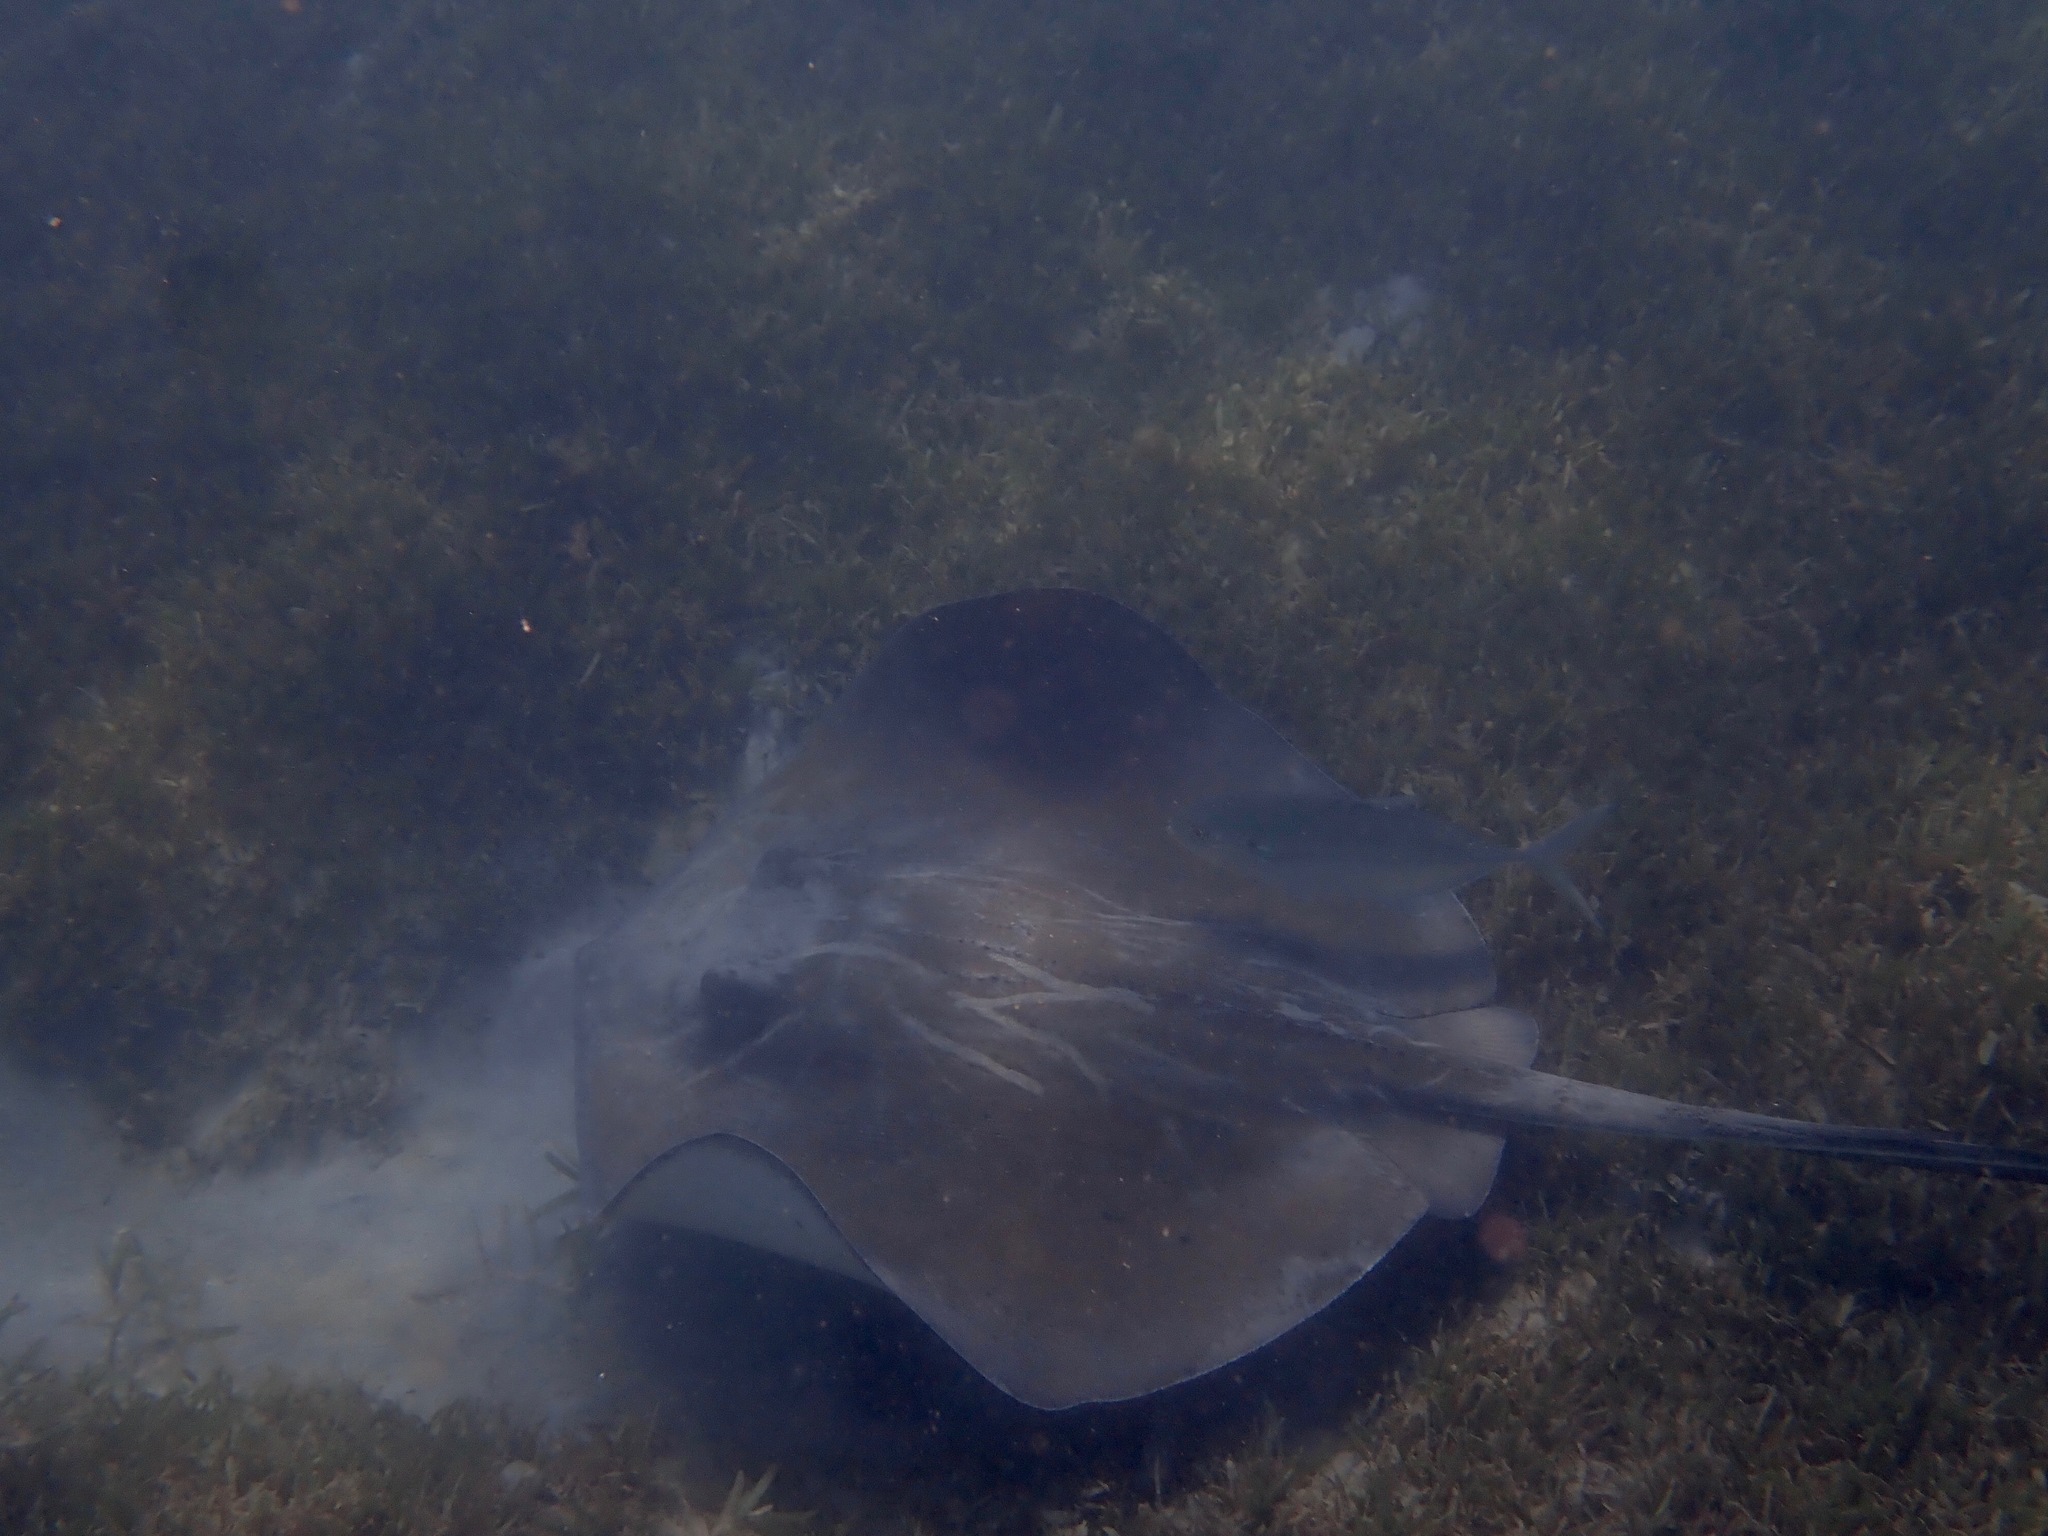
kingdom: Animalia
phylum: Chordata
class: Elasmobranchii
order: Myliobatiformes
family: Dasyatidae
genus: Hypanus
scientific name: Hypanus americanus
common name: Southern stingray
